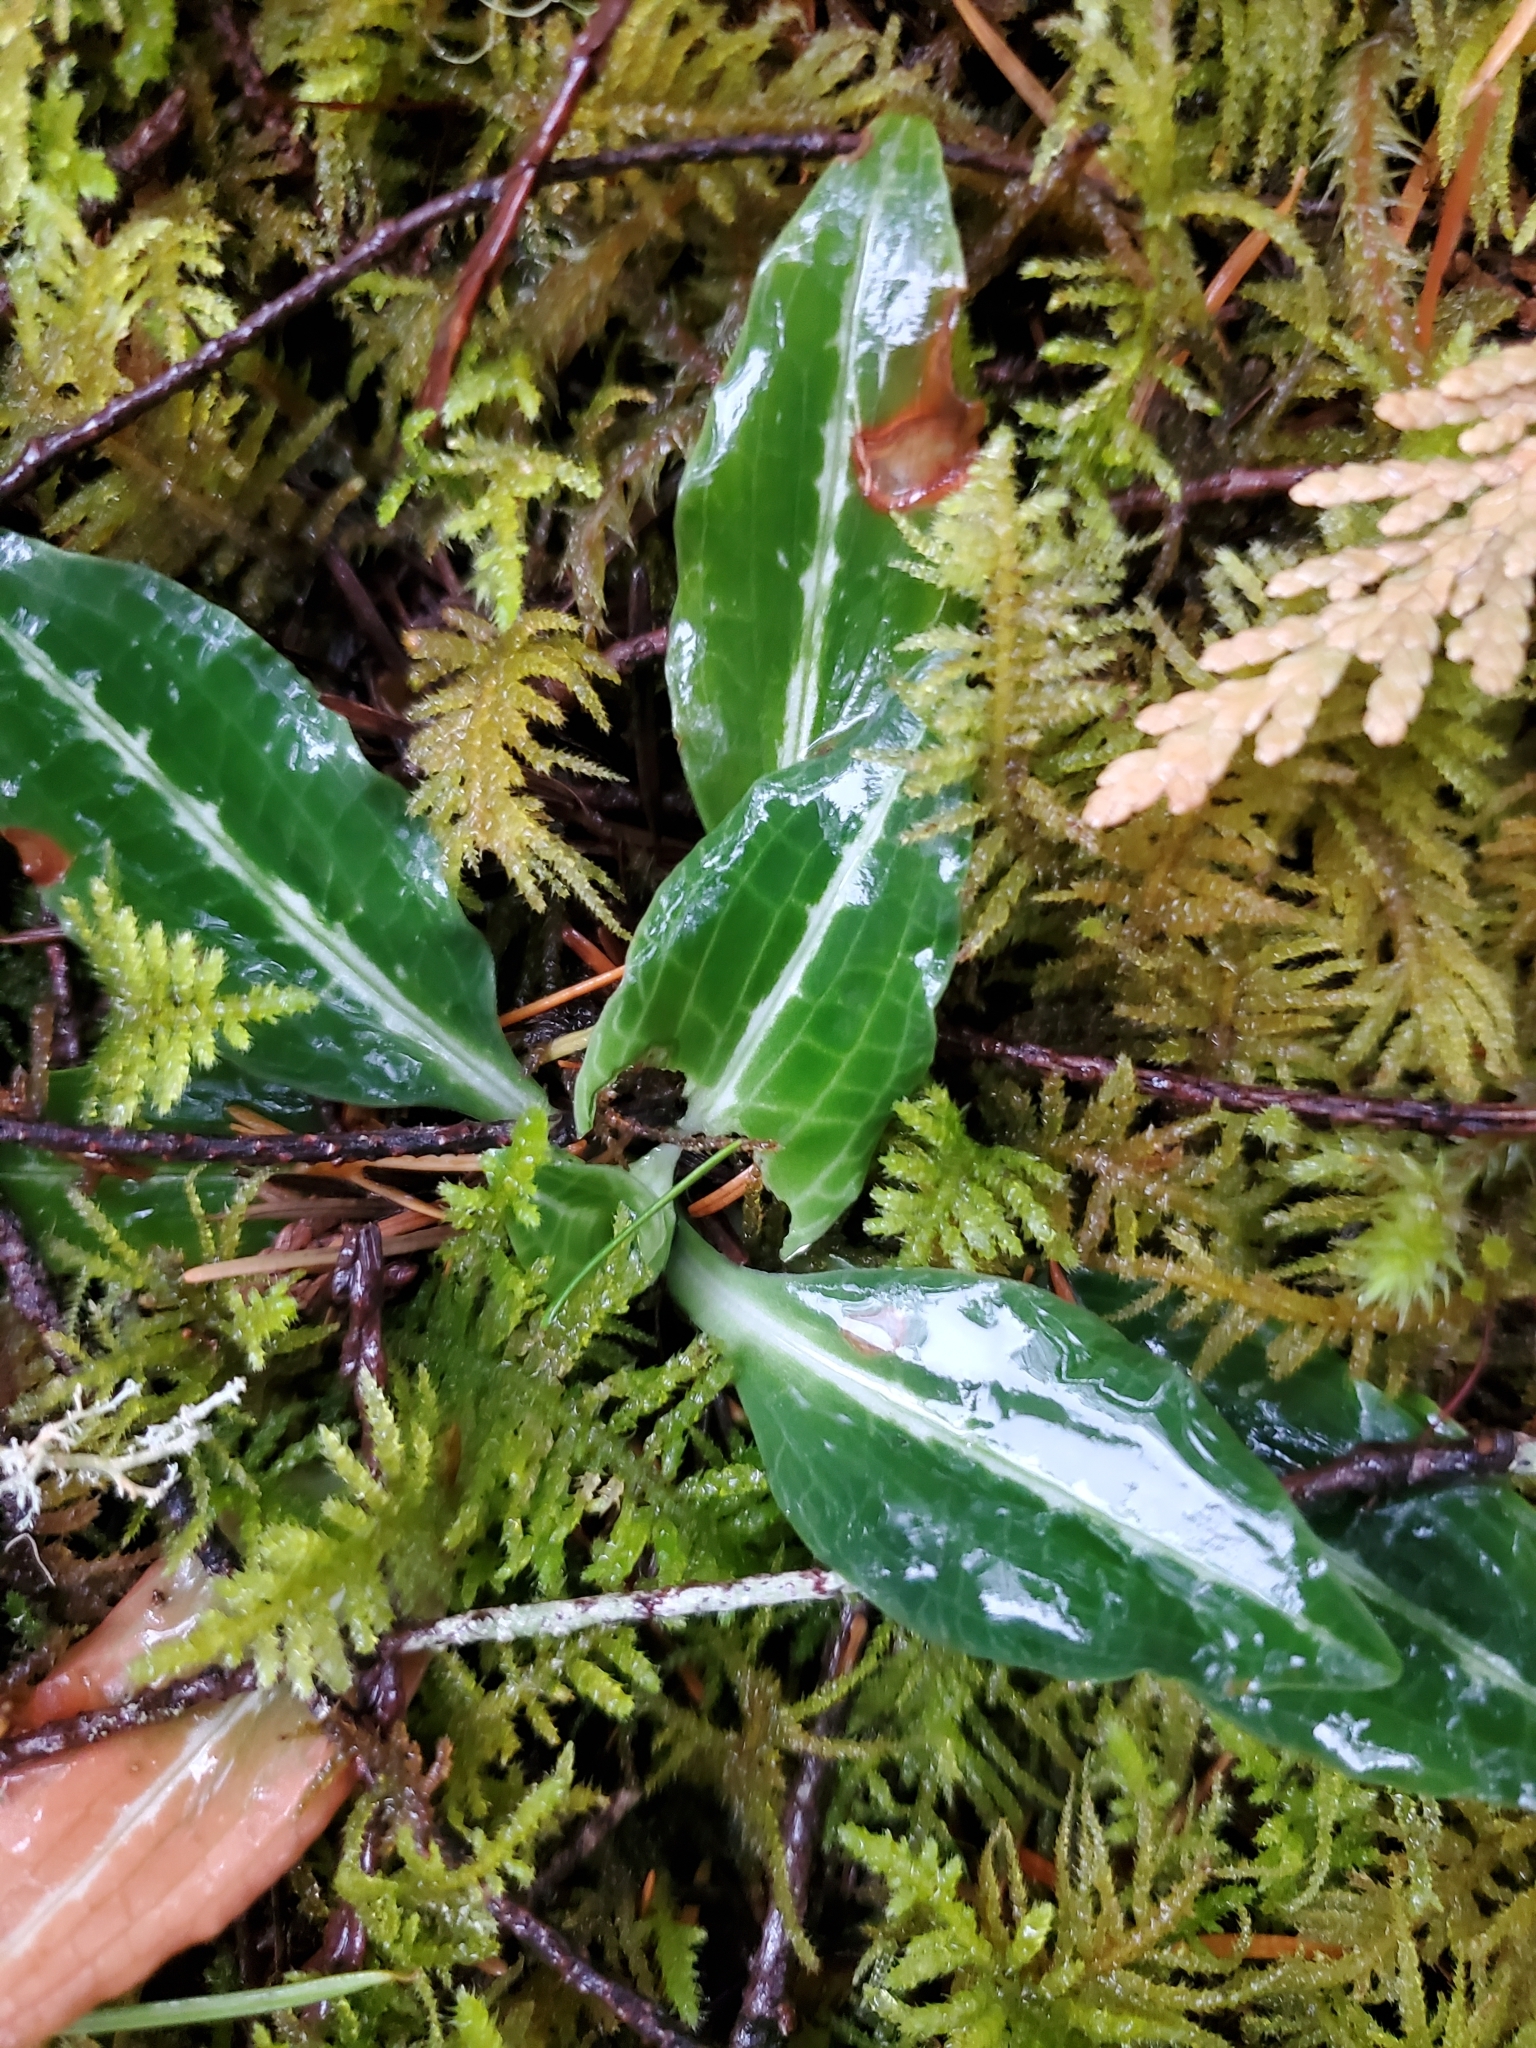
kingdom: Plantae
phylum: Tracheophyta
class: Liliopsida
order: Asparagales
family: Orchidaceae
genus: Goodyera
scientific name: Goodyera oblongifolia
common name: Giant rattlesnake-plantain
